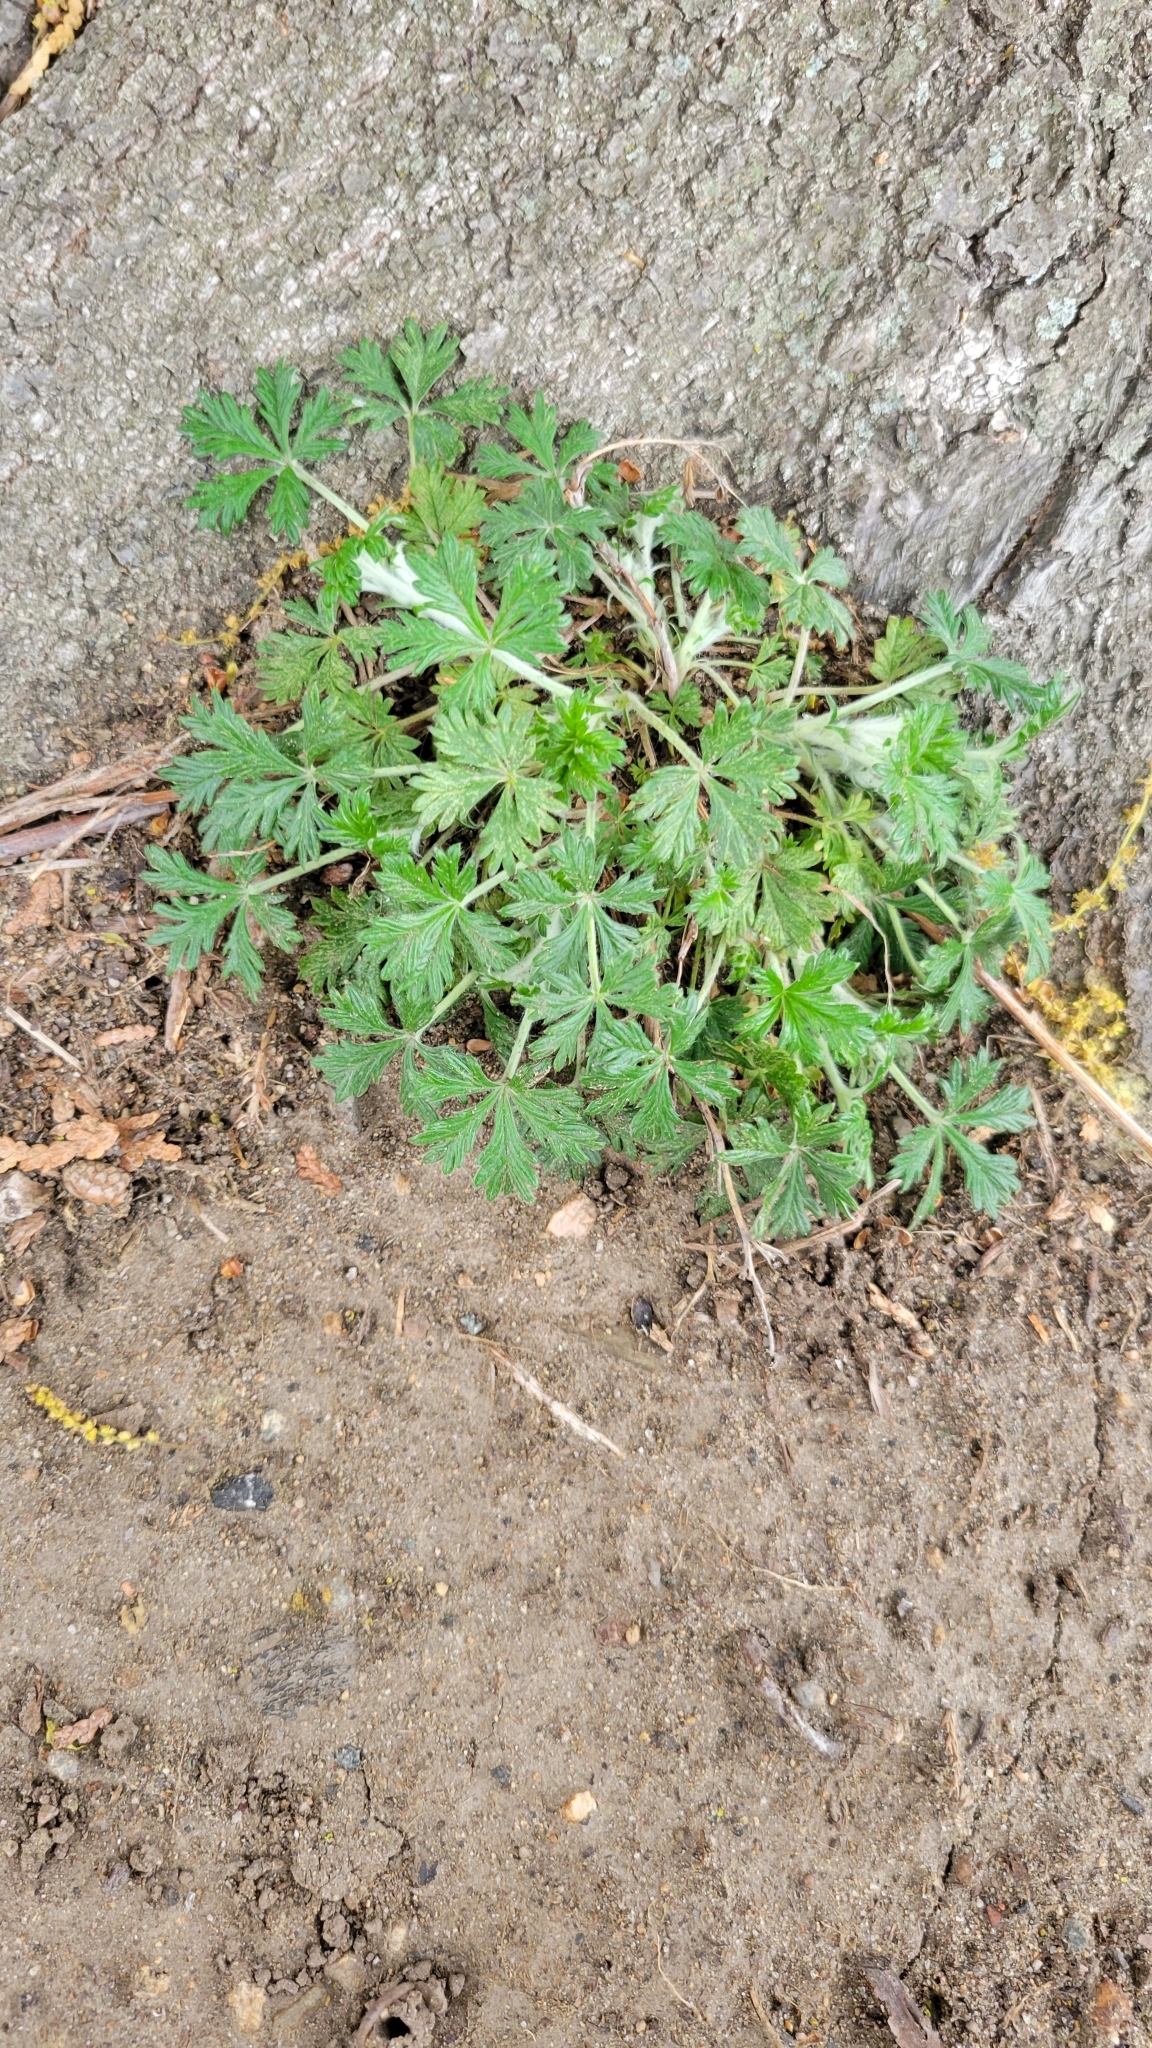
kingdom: Plantae
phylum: Tracheophyta
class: Magnoliopsida
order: Rosales
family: Rosaceae
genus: Potentilla
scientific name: Potentilla argentea
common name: Hoary cinquefoil
